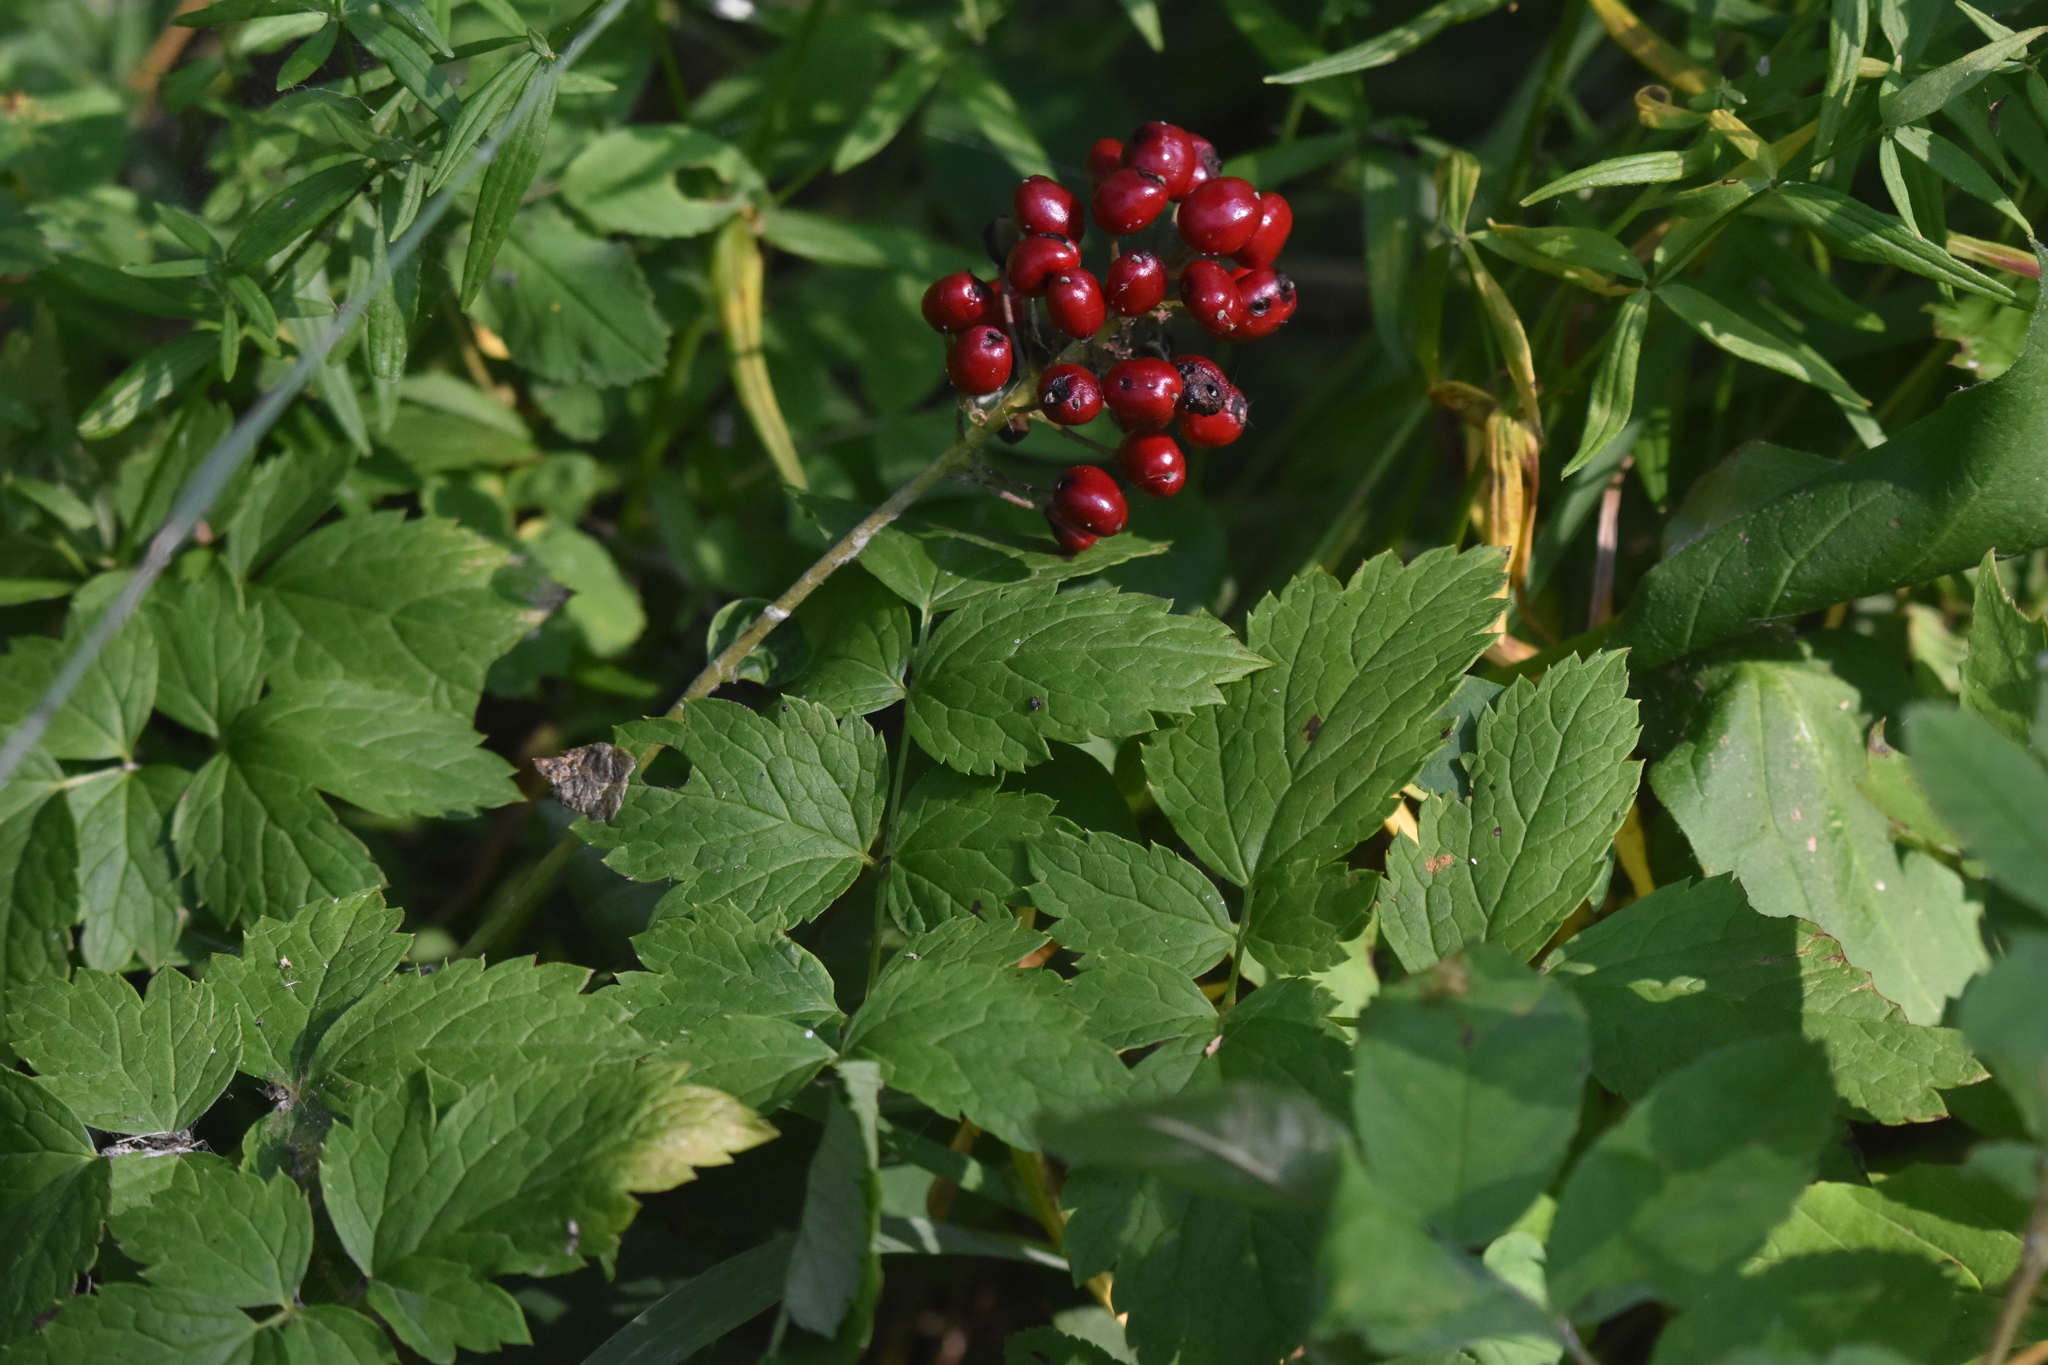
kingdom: Plantae
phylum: Tracheophyta
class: Magnoliopsida
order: Ranunculales
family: Ranunculaceae
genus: Actaea
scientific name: Actaea rubra
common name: Red baneberry
